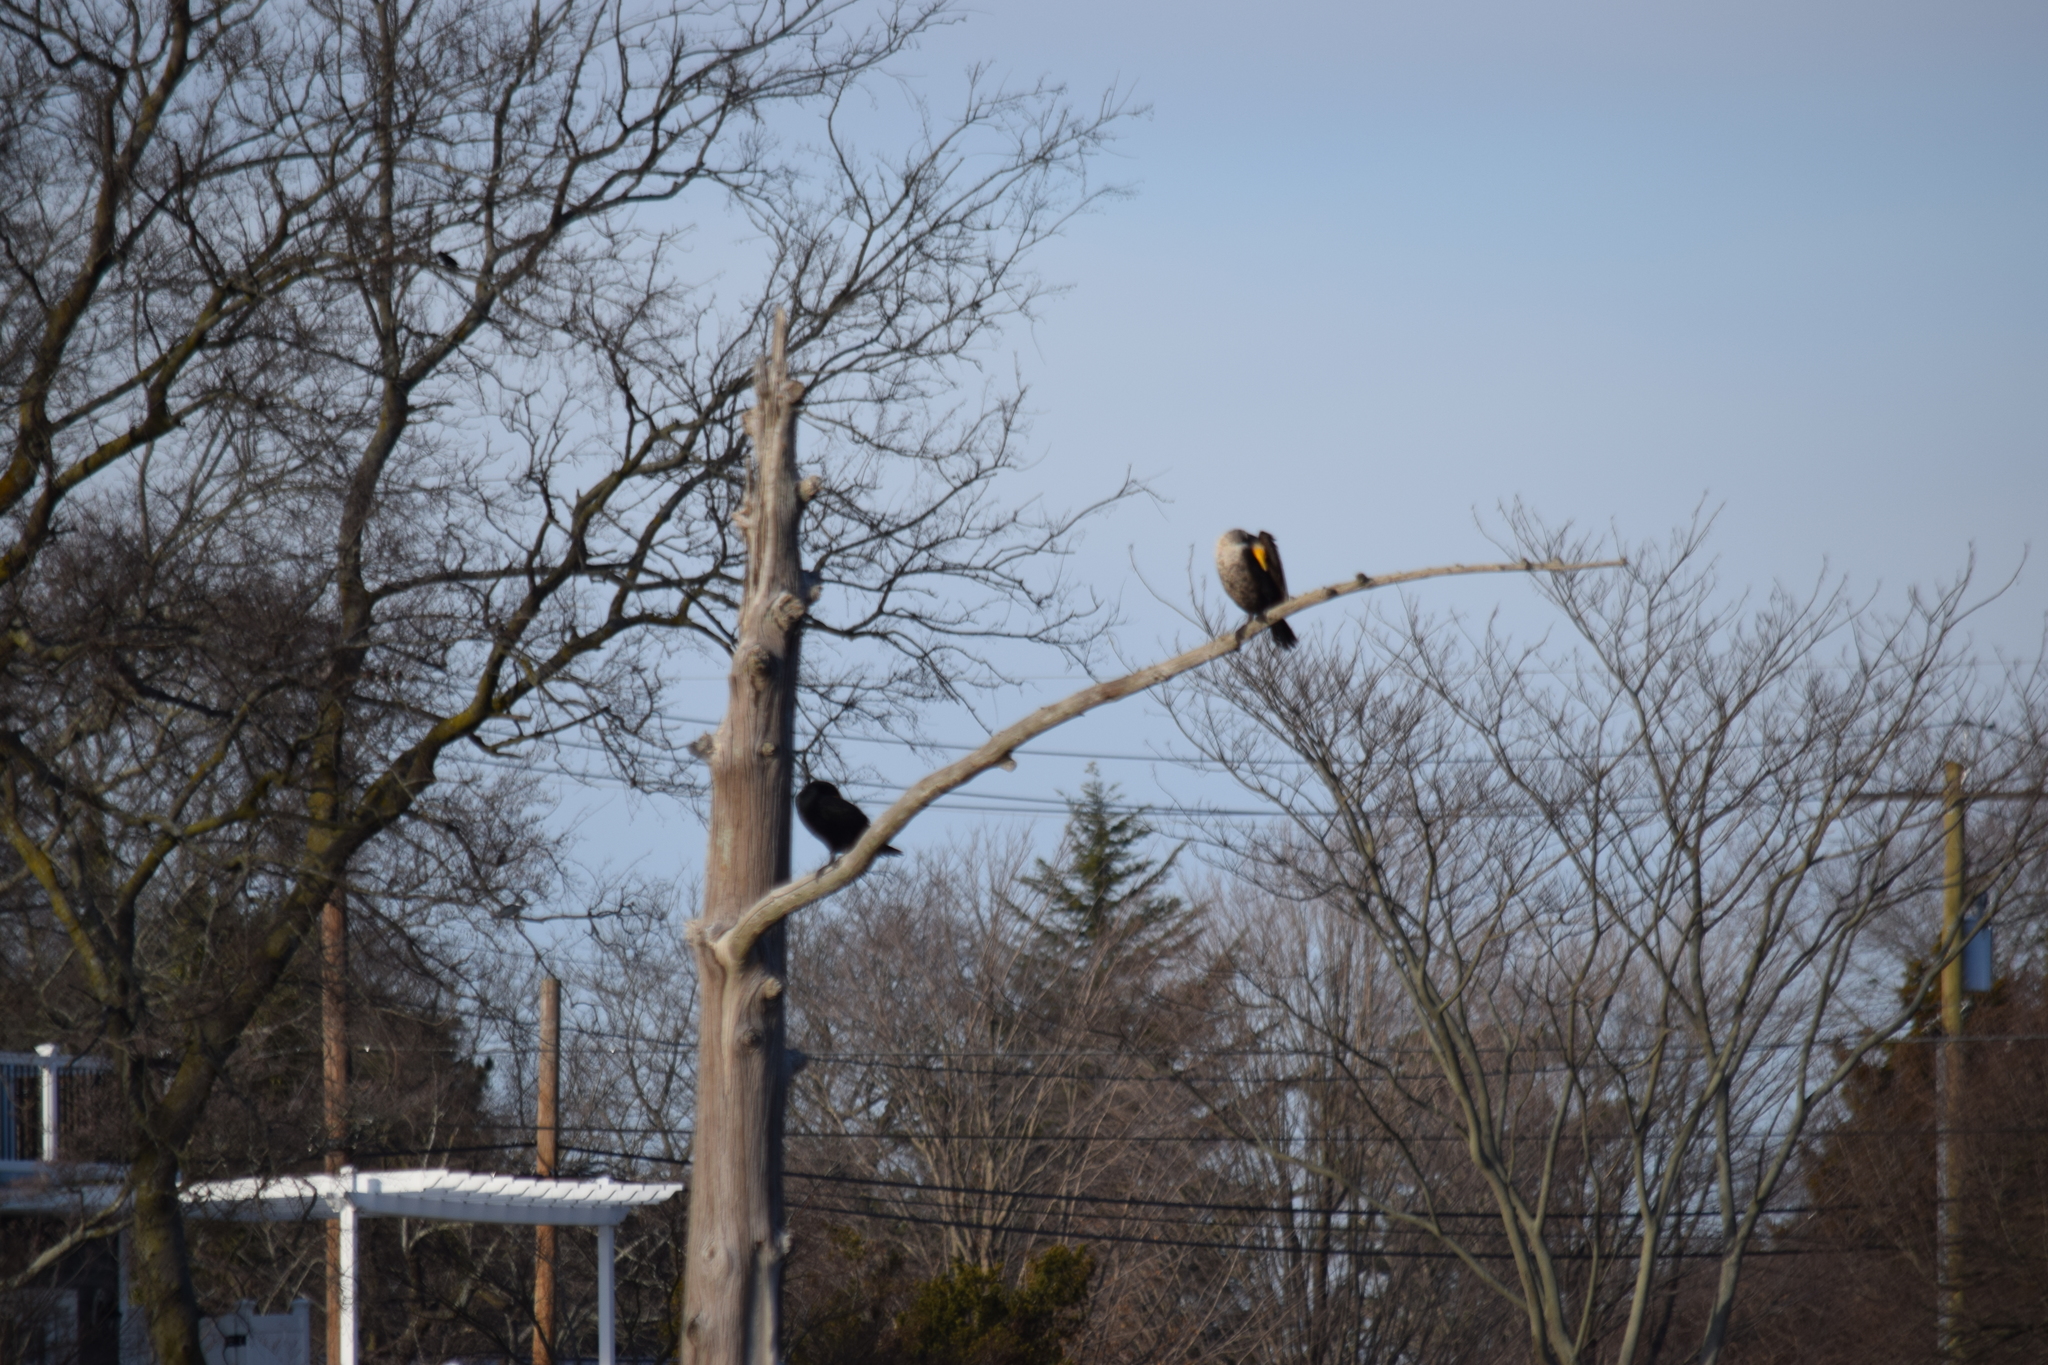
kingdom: Animalia
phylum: Chordata
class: Aves
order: Suliformes
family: Phalacrocoracidae
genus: Phalacrocorax
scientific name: Phalacrocorax auritus
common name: Double-crested cormorant
